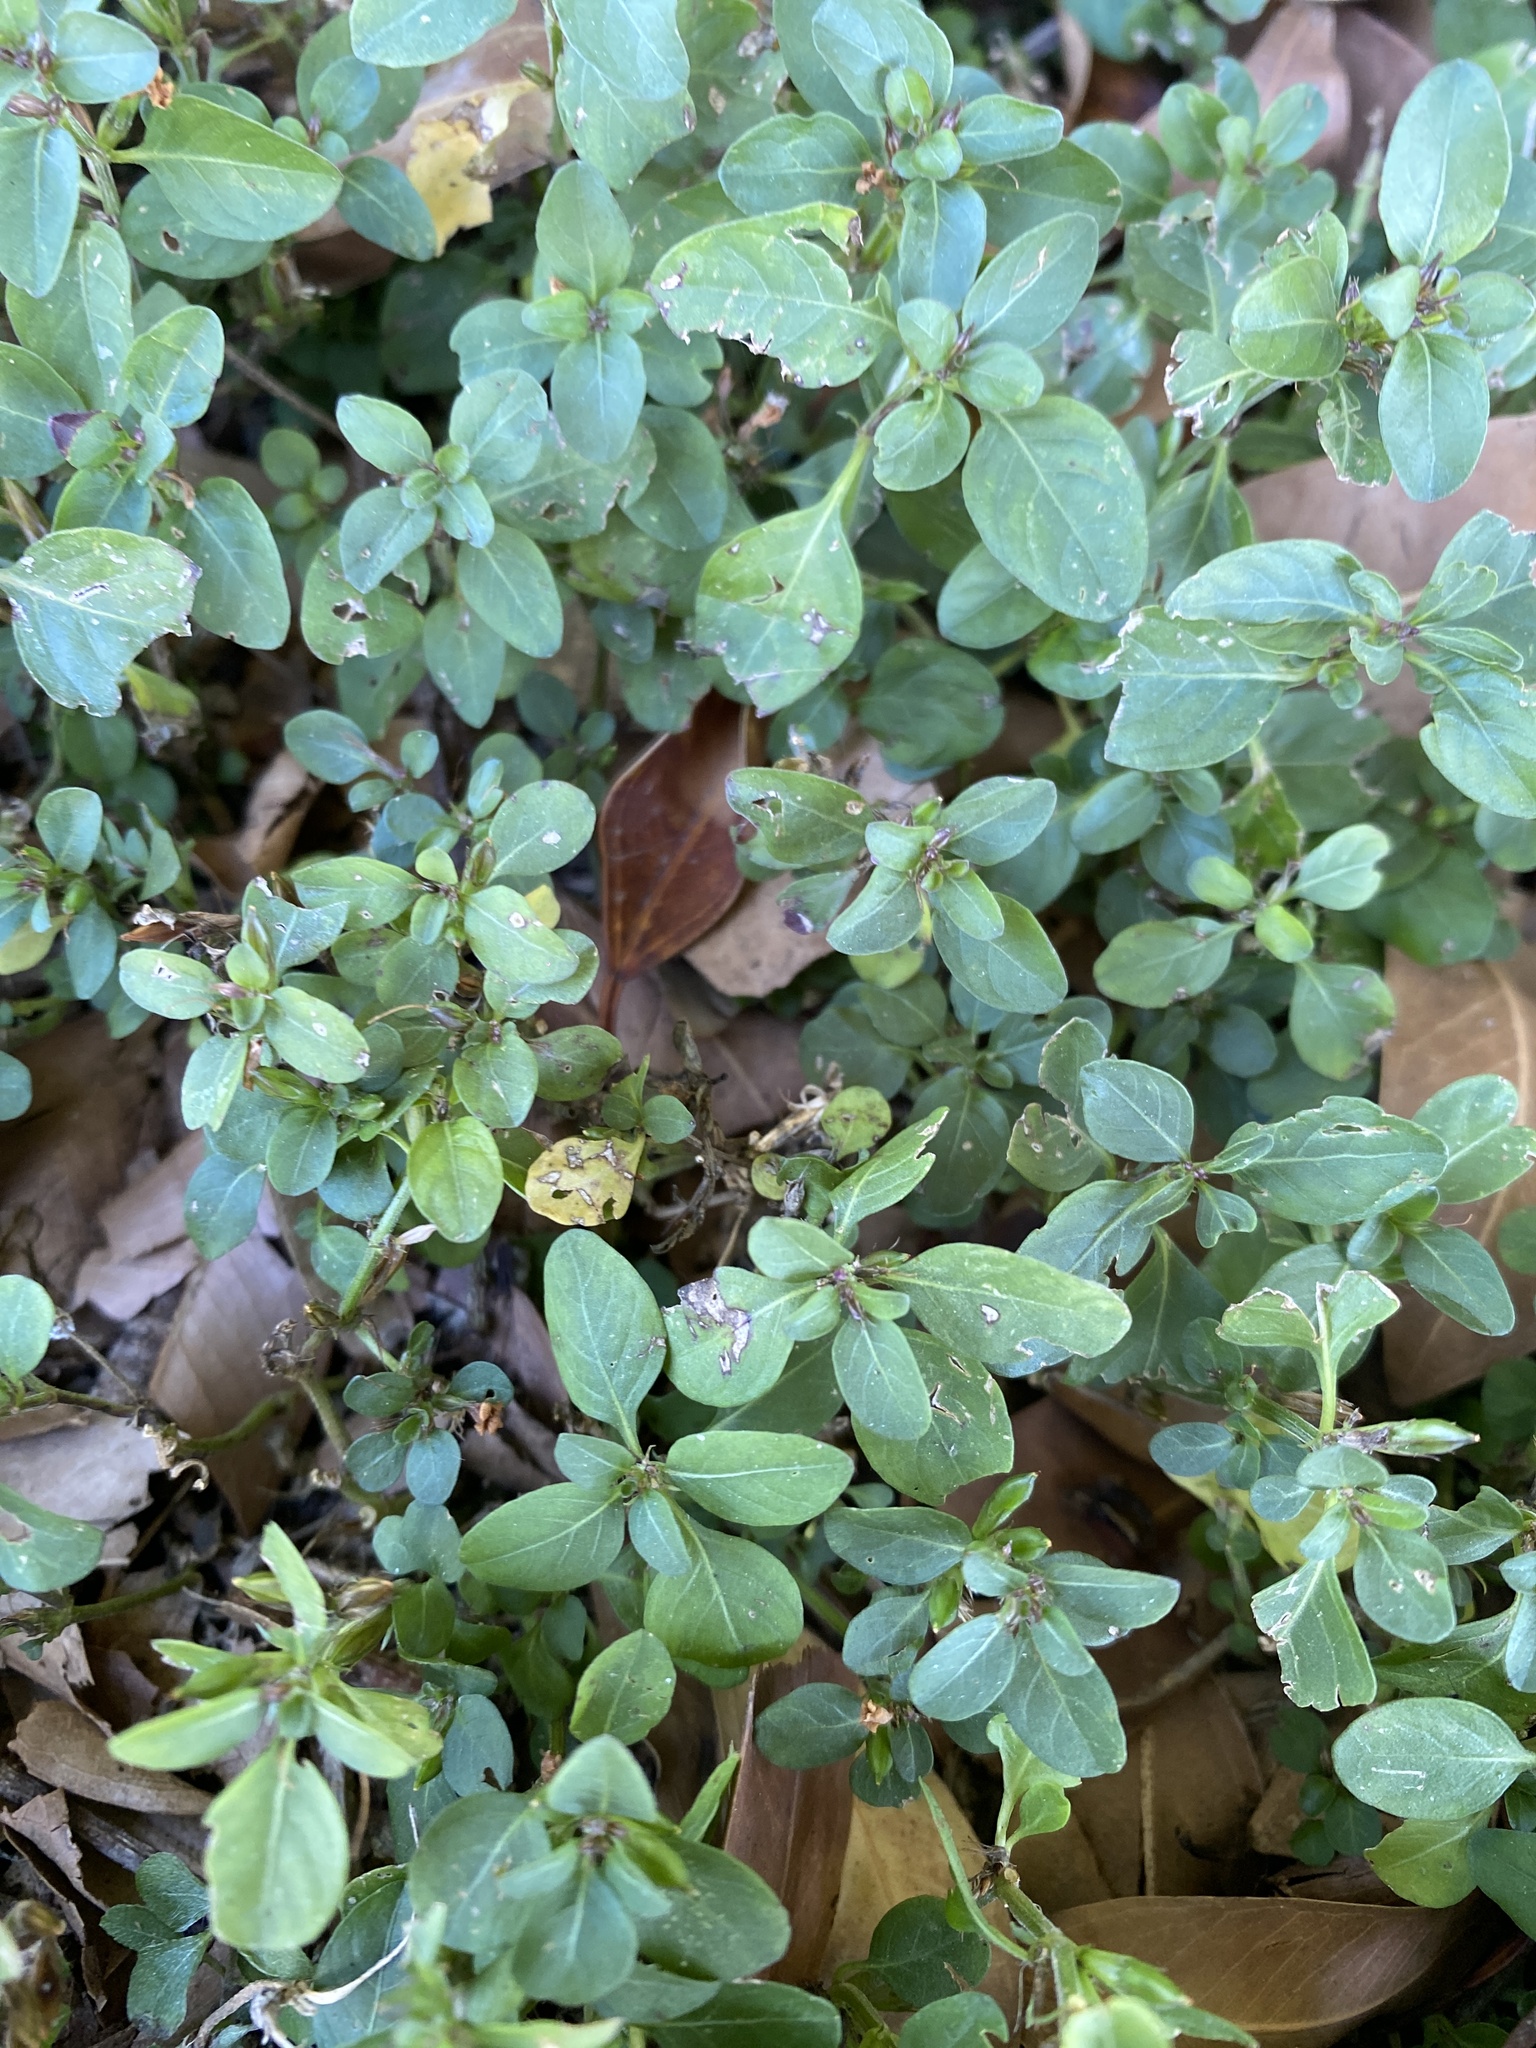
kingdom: Plantae
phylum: Tracheophyta
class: Magnoliopsida
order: Lamiales
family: Acanthaceae
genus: Hygrophila
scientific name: Hygrophila erecta
